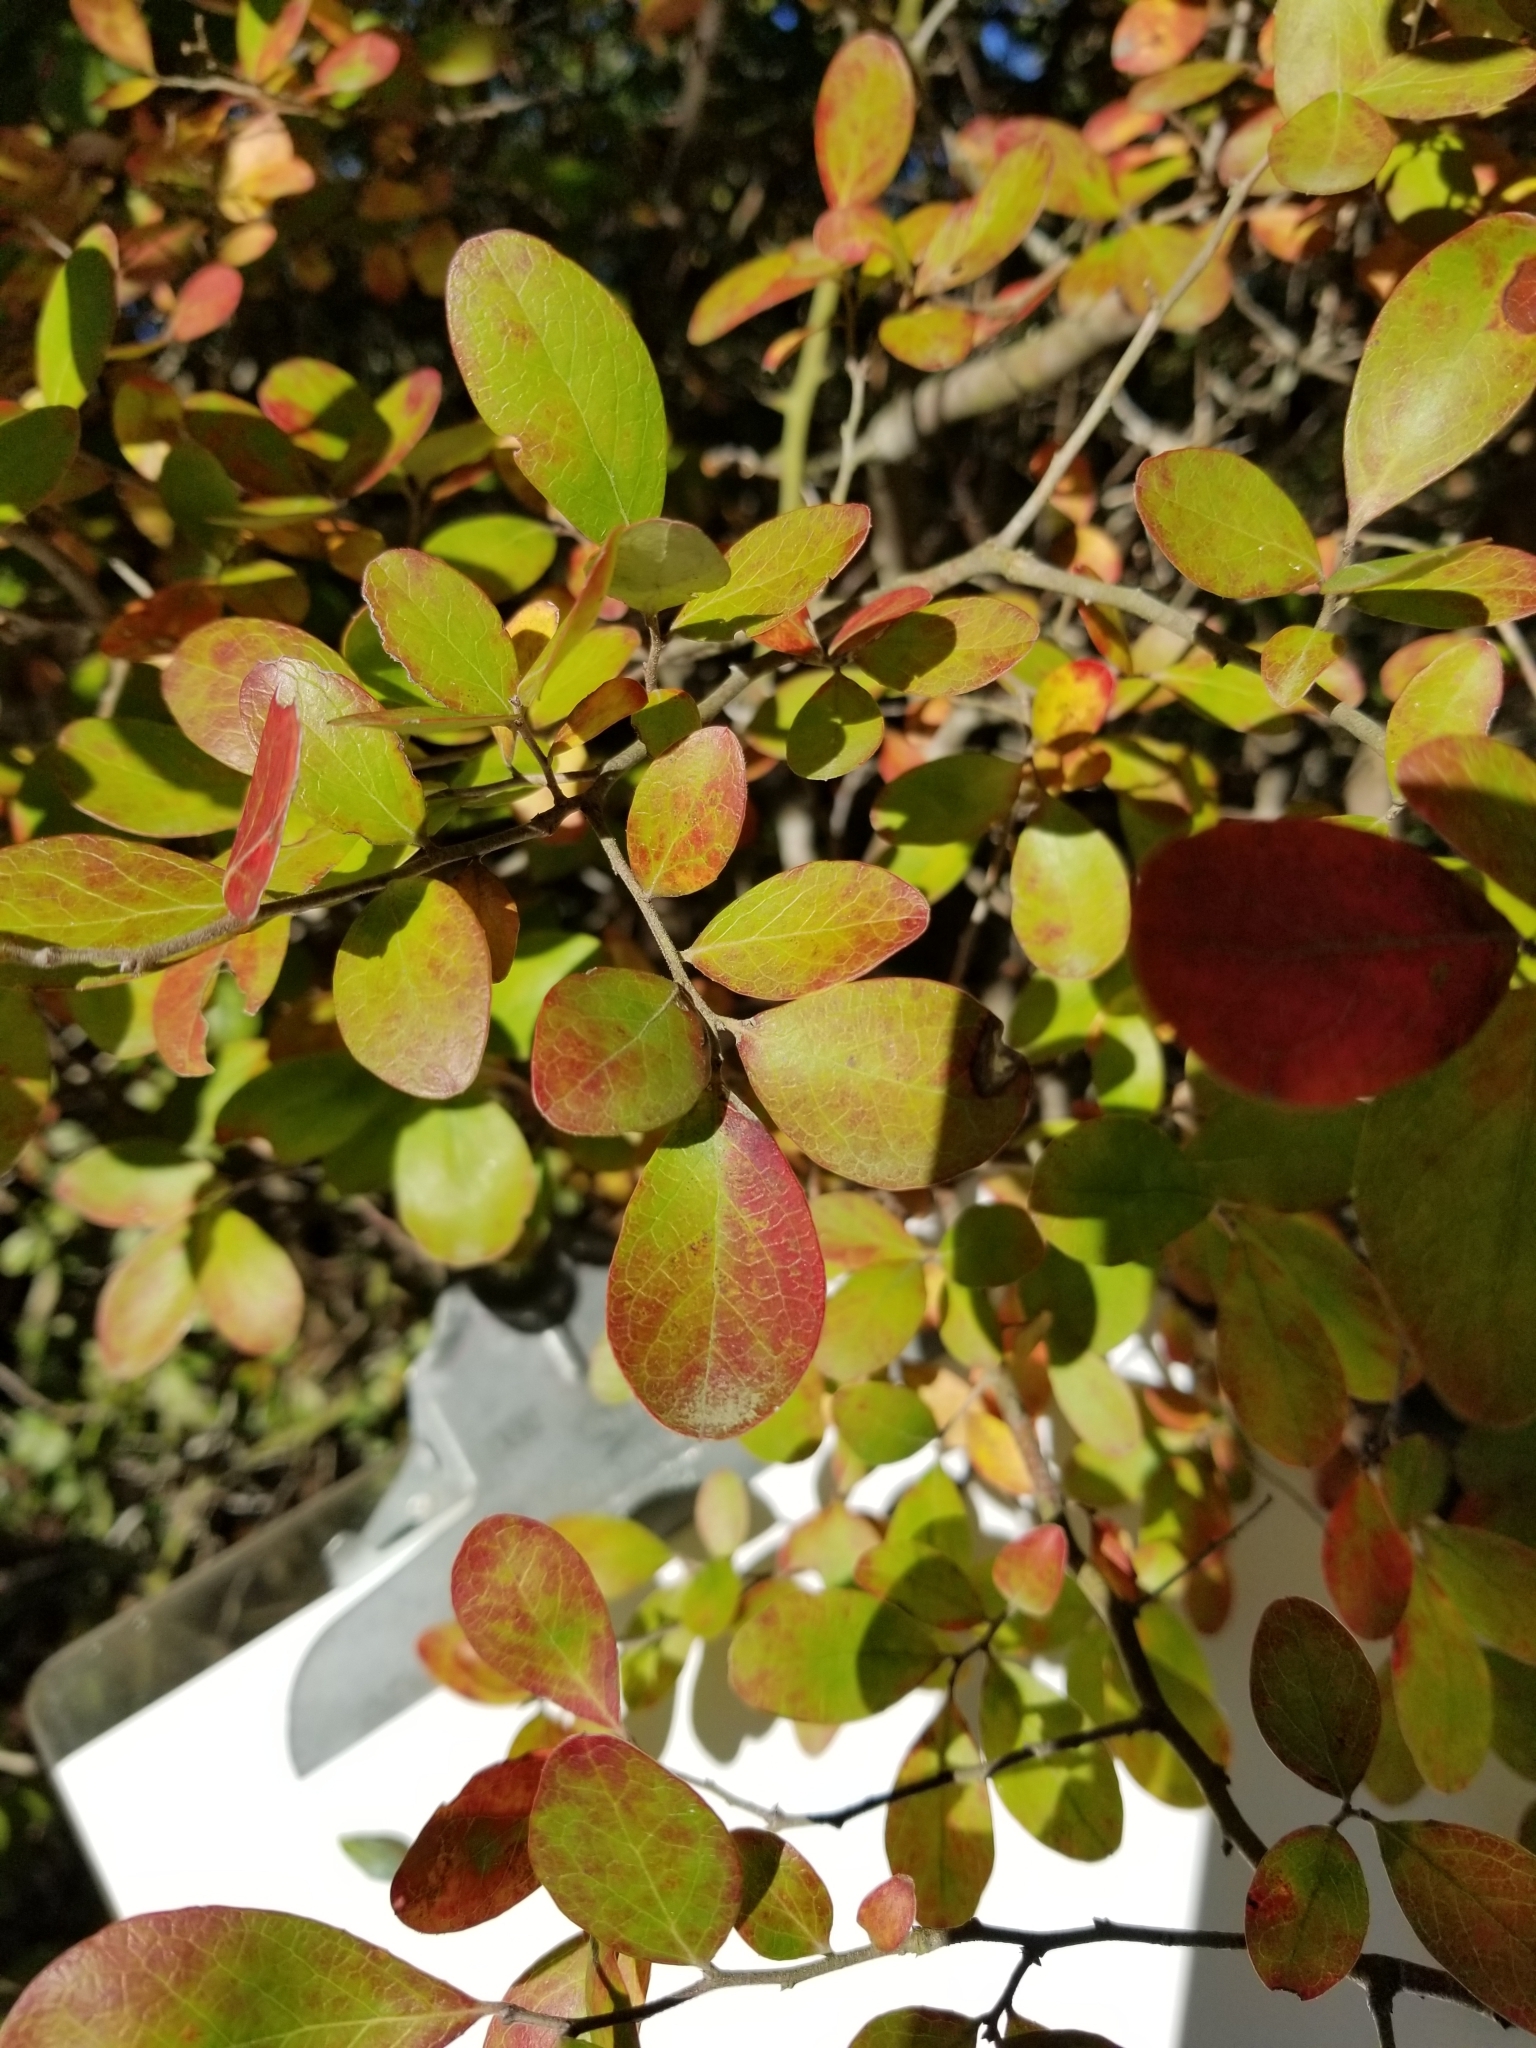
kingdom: Plantae
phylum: Tracheophyta
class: Magnoliopsida
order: Ericales
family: Ericaceae
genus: Vaccinium
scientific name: Vaccinium arboreum
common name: Farkleberry
